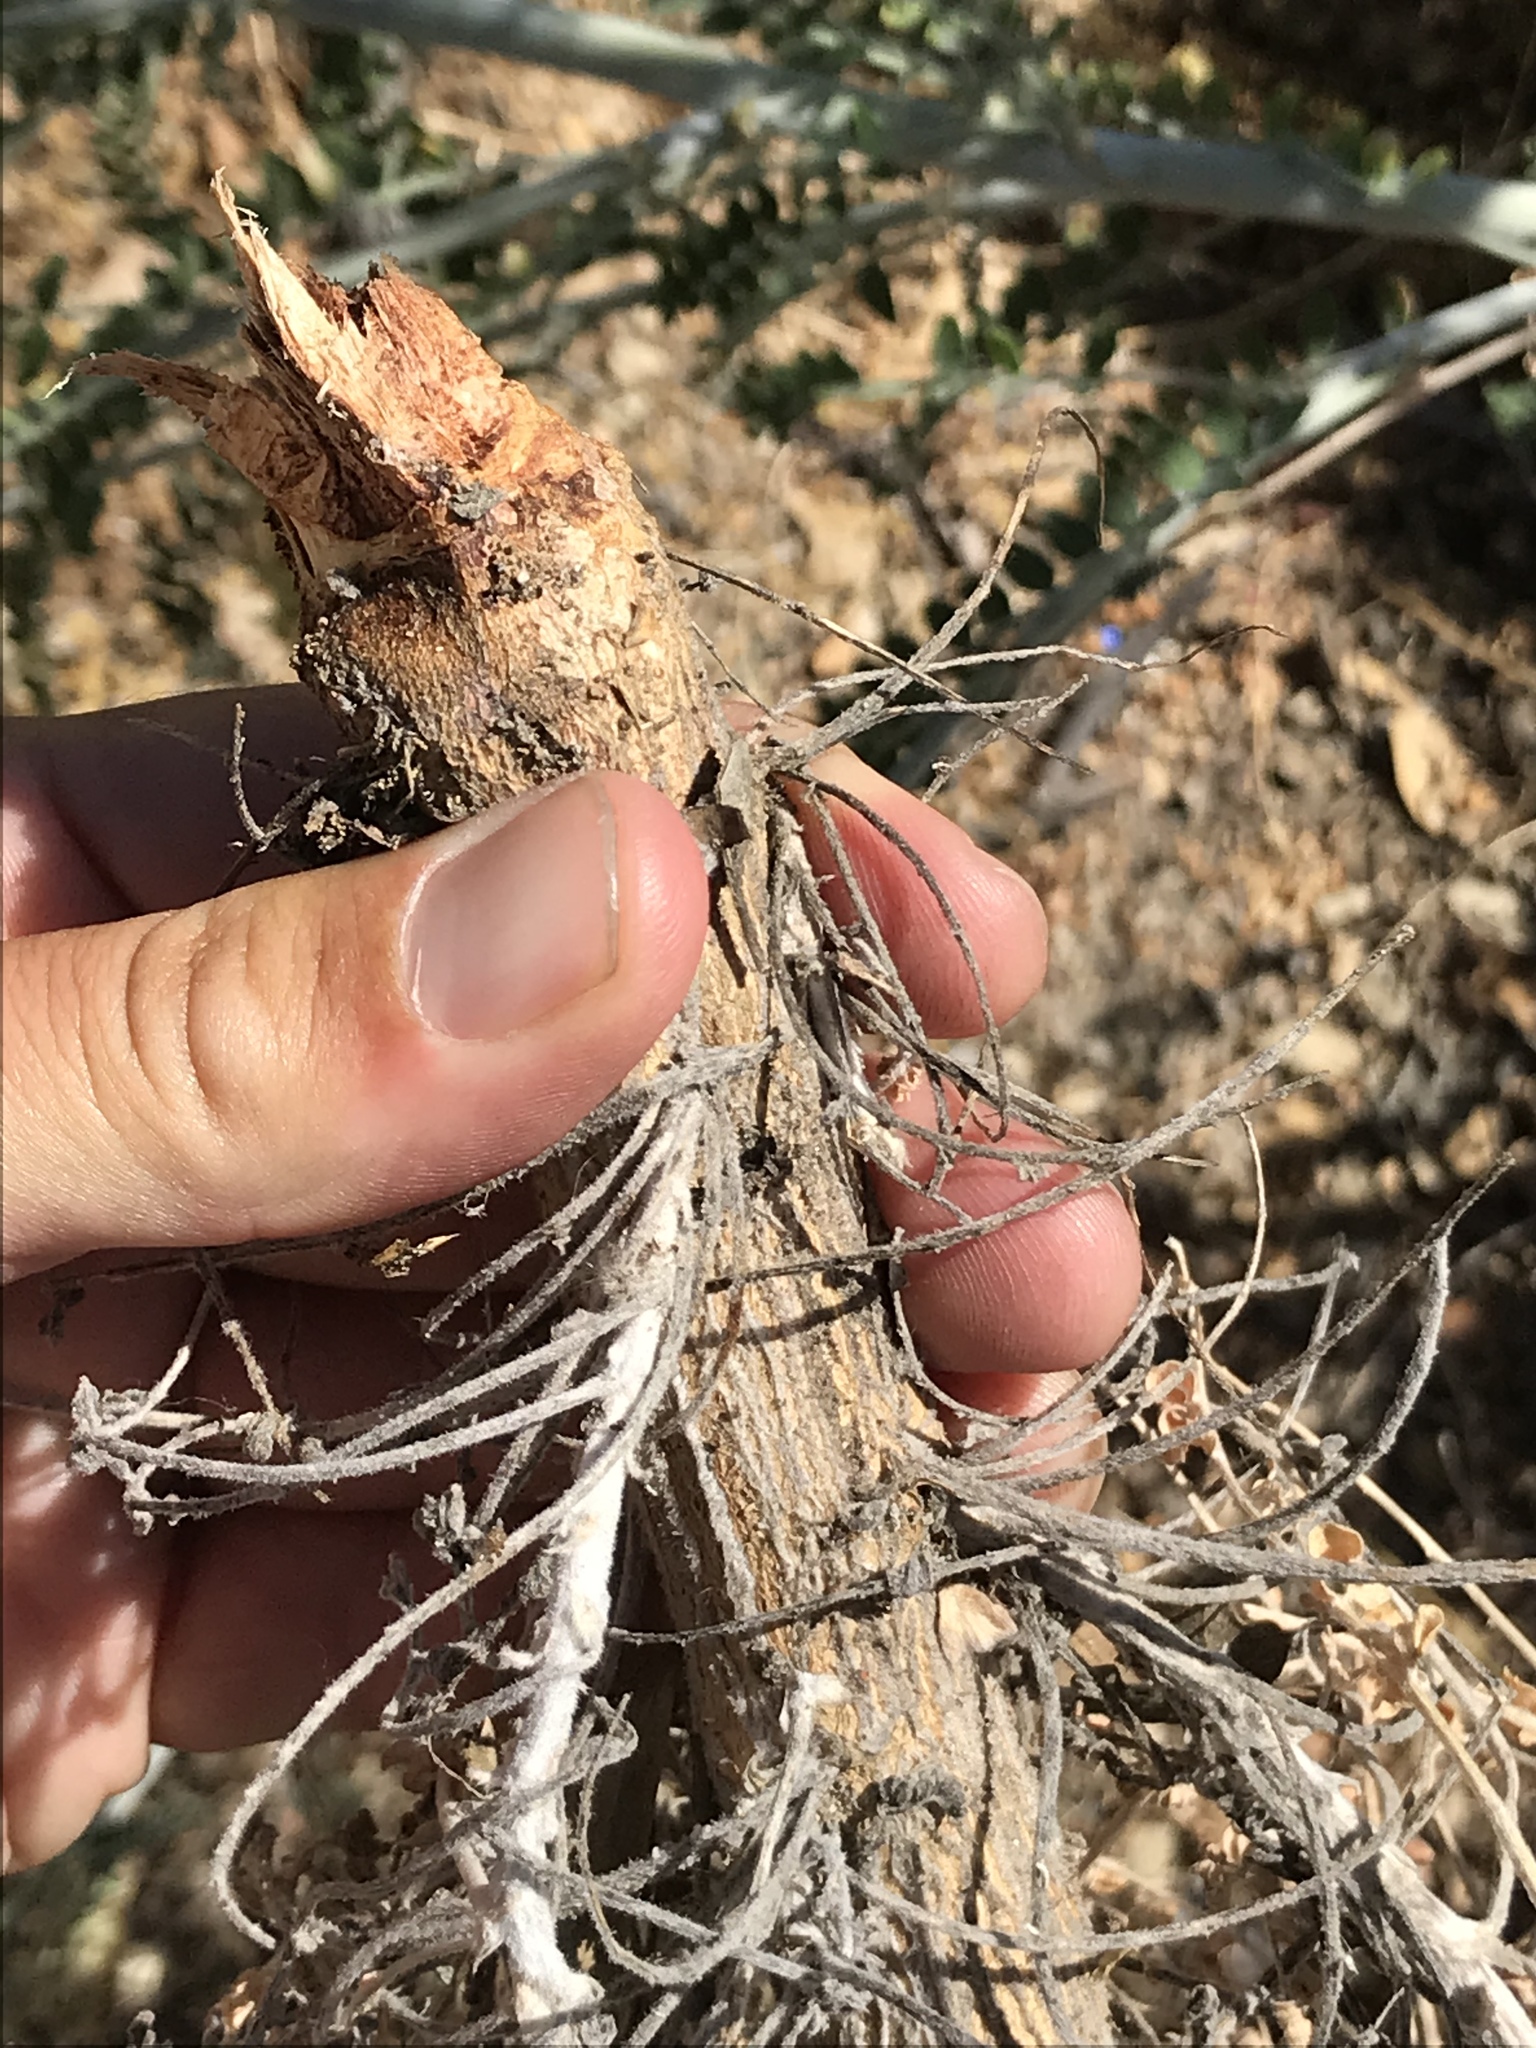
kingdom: Plantae
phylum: Tracheophyta
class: Magnoliopsida
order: Fabales
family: Fabaceae
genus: Astragalus
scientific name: Astragalus brauntonii
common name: Braunton's milk-vetch
